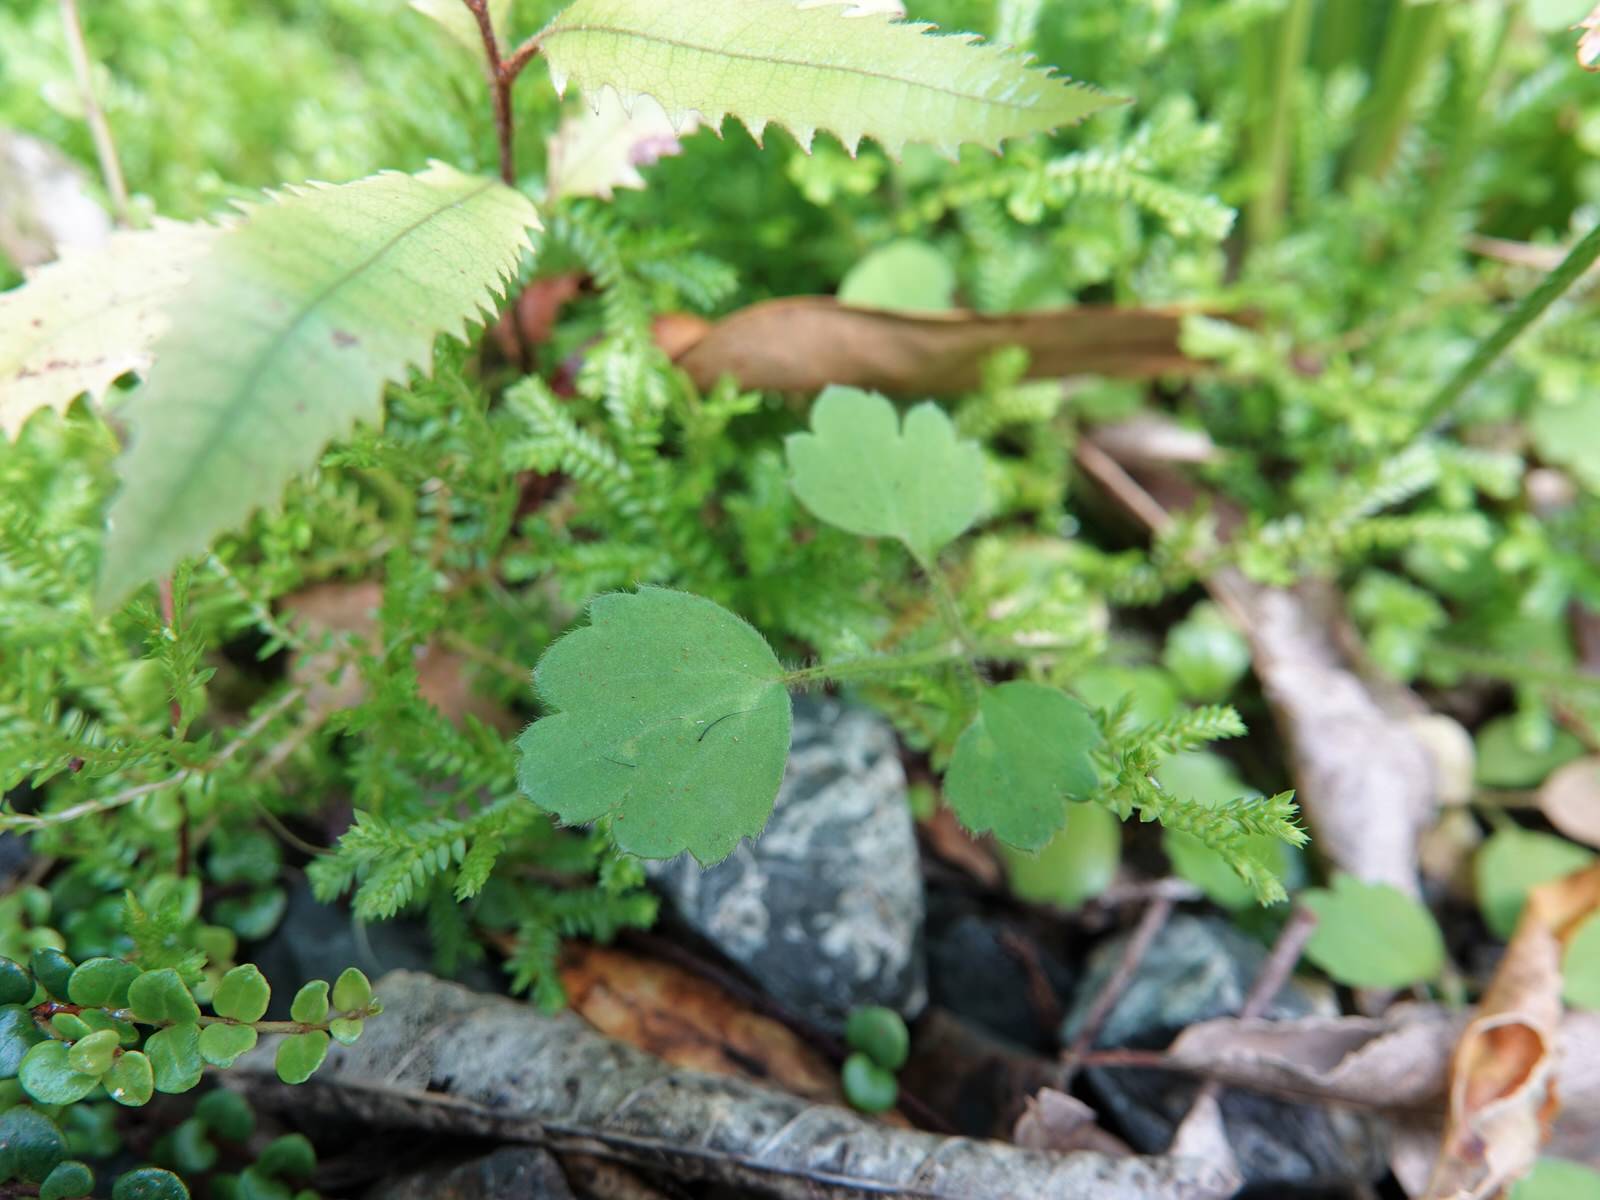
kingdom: Plantae
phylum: Tracheophyta
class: Magnoliopsida
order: Ranunculales
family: Ranunculaceae
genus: Ranunculus
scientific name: Ranunculus reflexus
